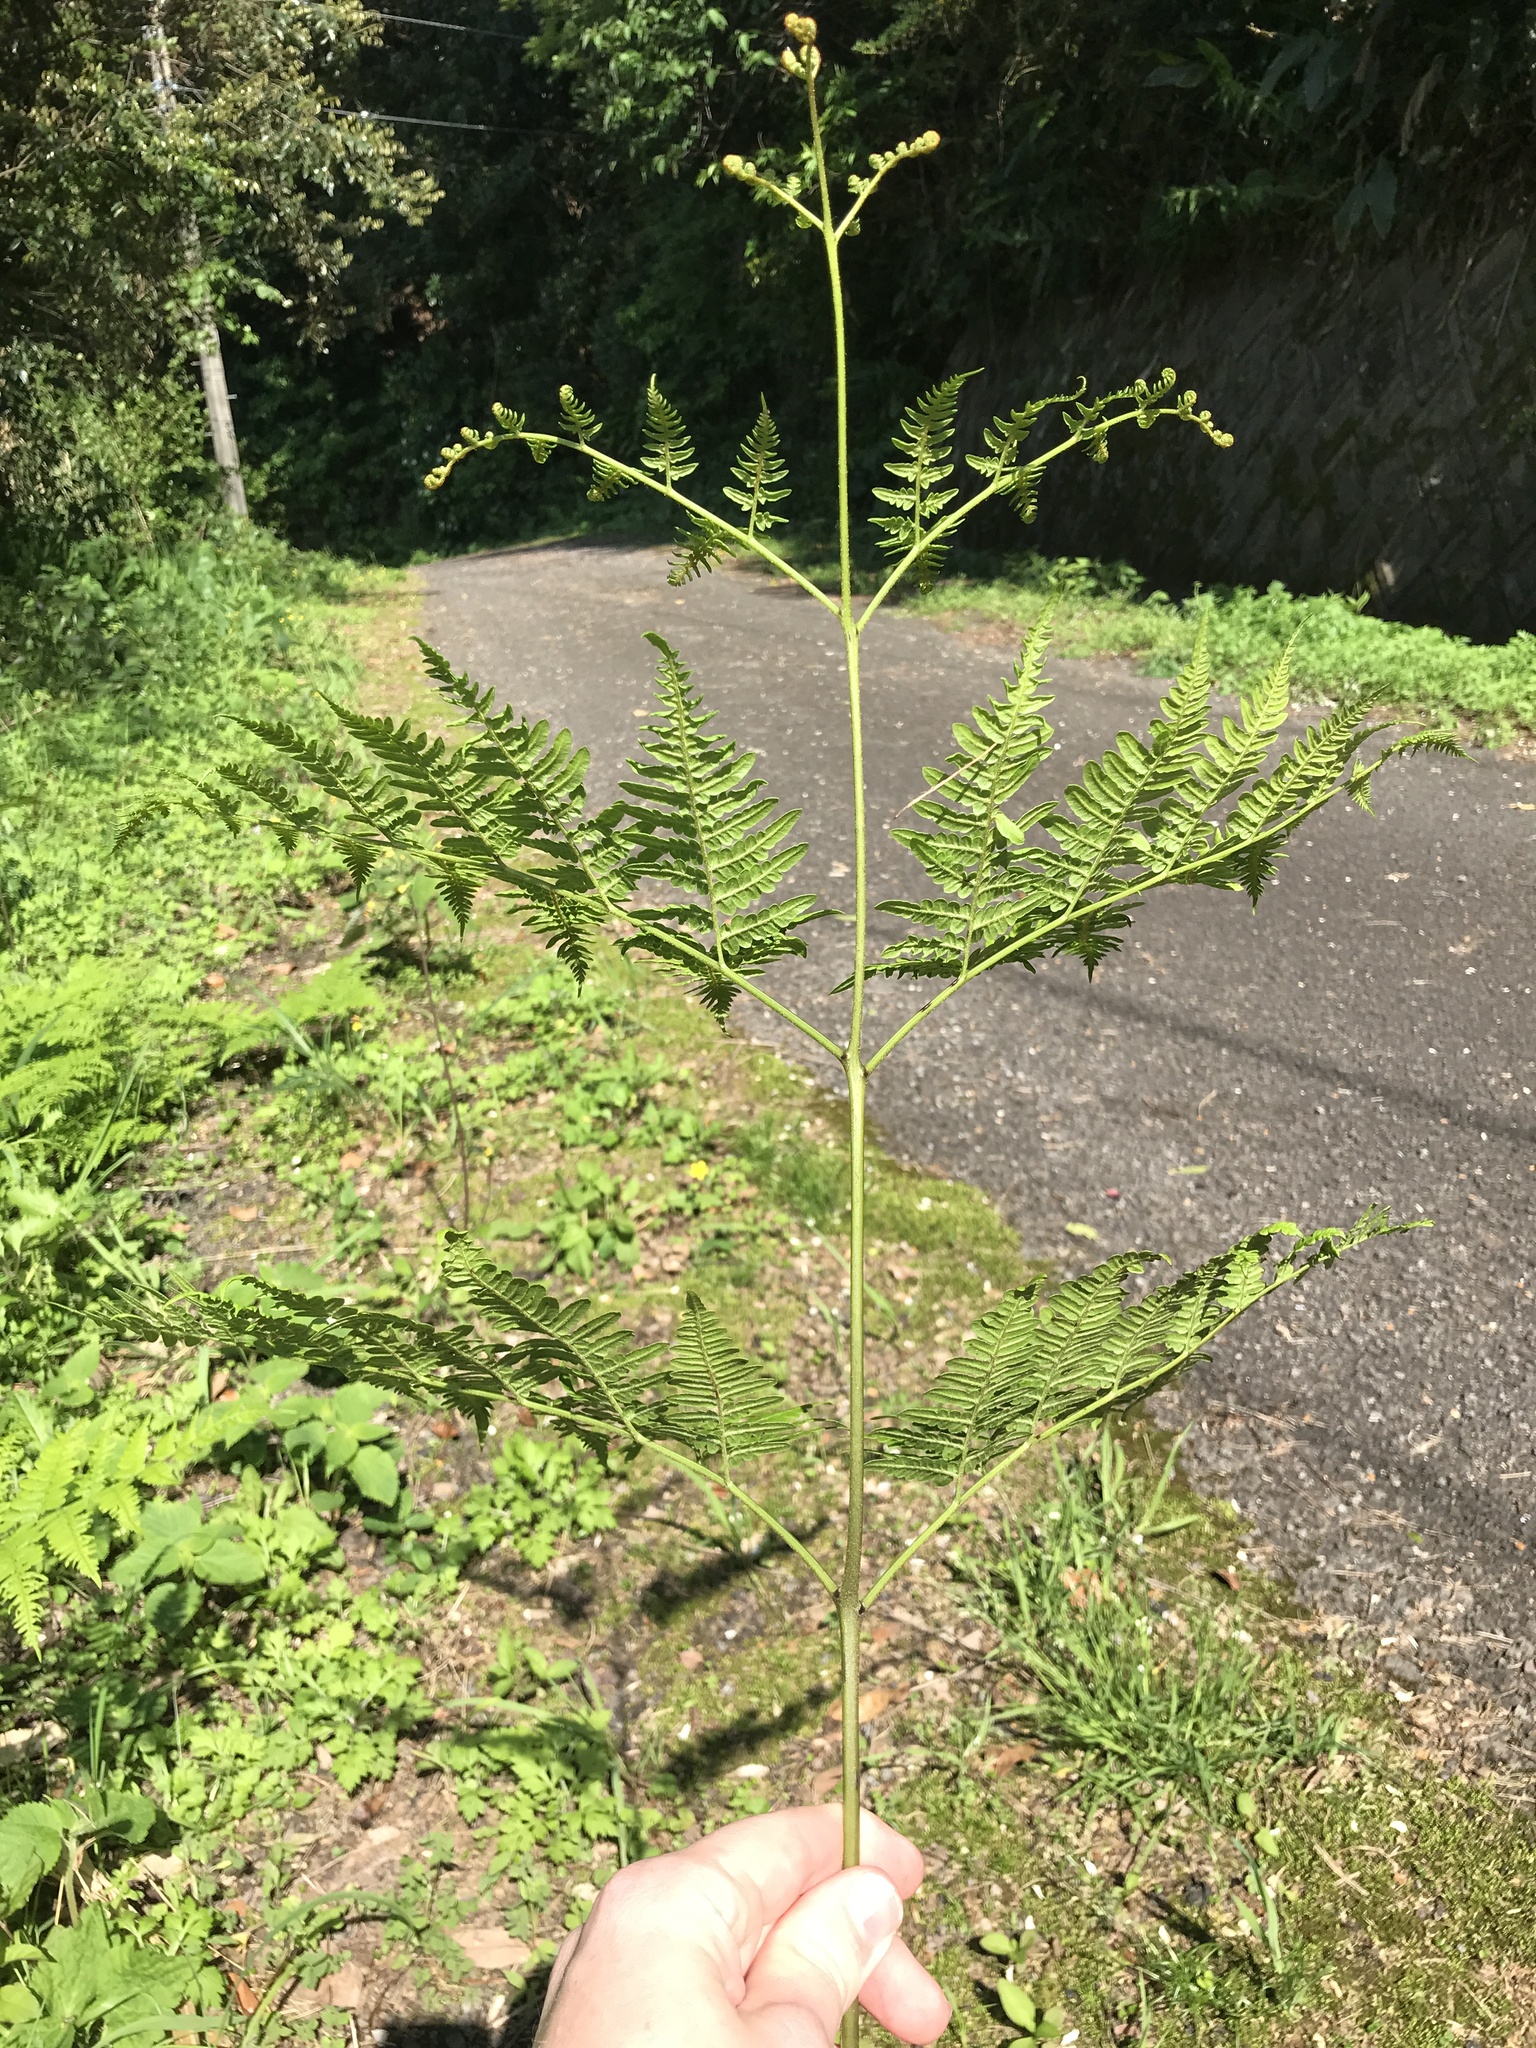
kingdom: Plantae
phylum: Tracheophyta
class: Polypodiopsida
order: Polypodiales
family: Dennstaedtiaceae
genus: Pteridium
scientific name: Pteridium aquilinum
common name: Bracken
